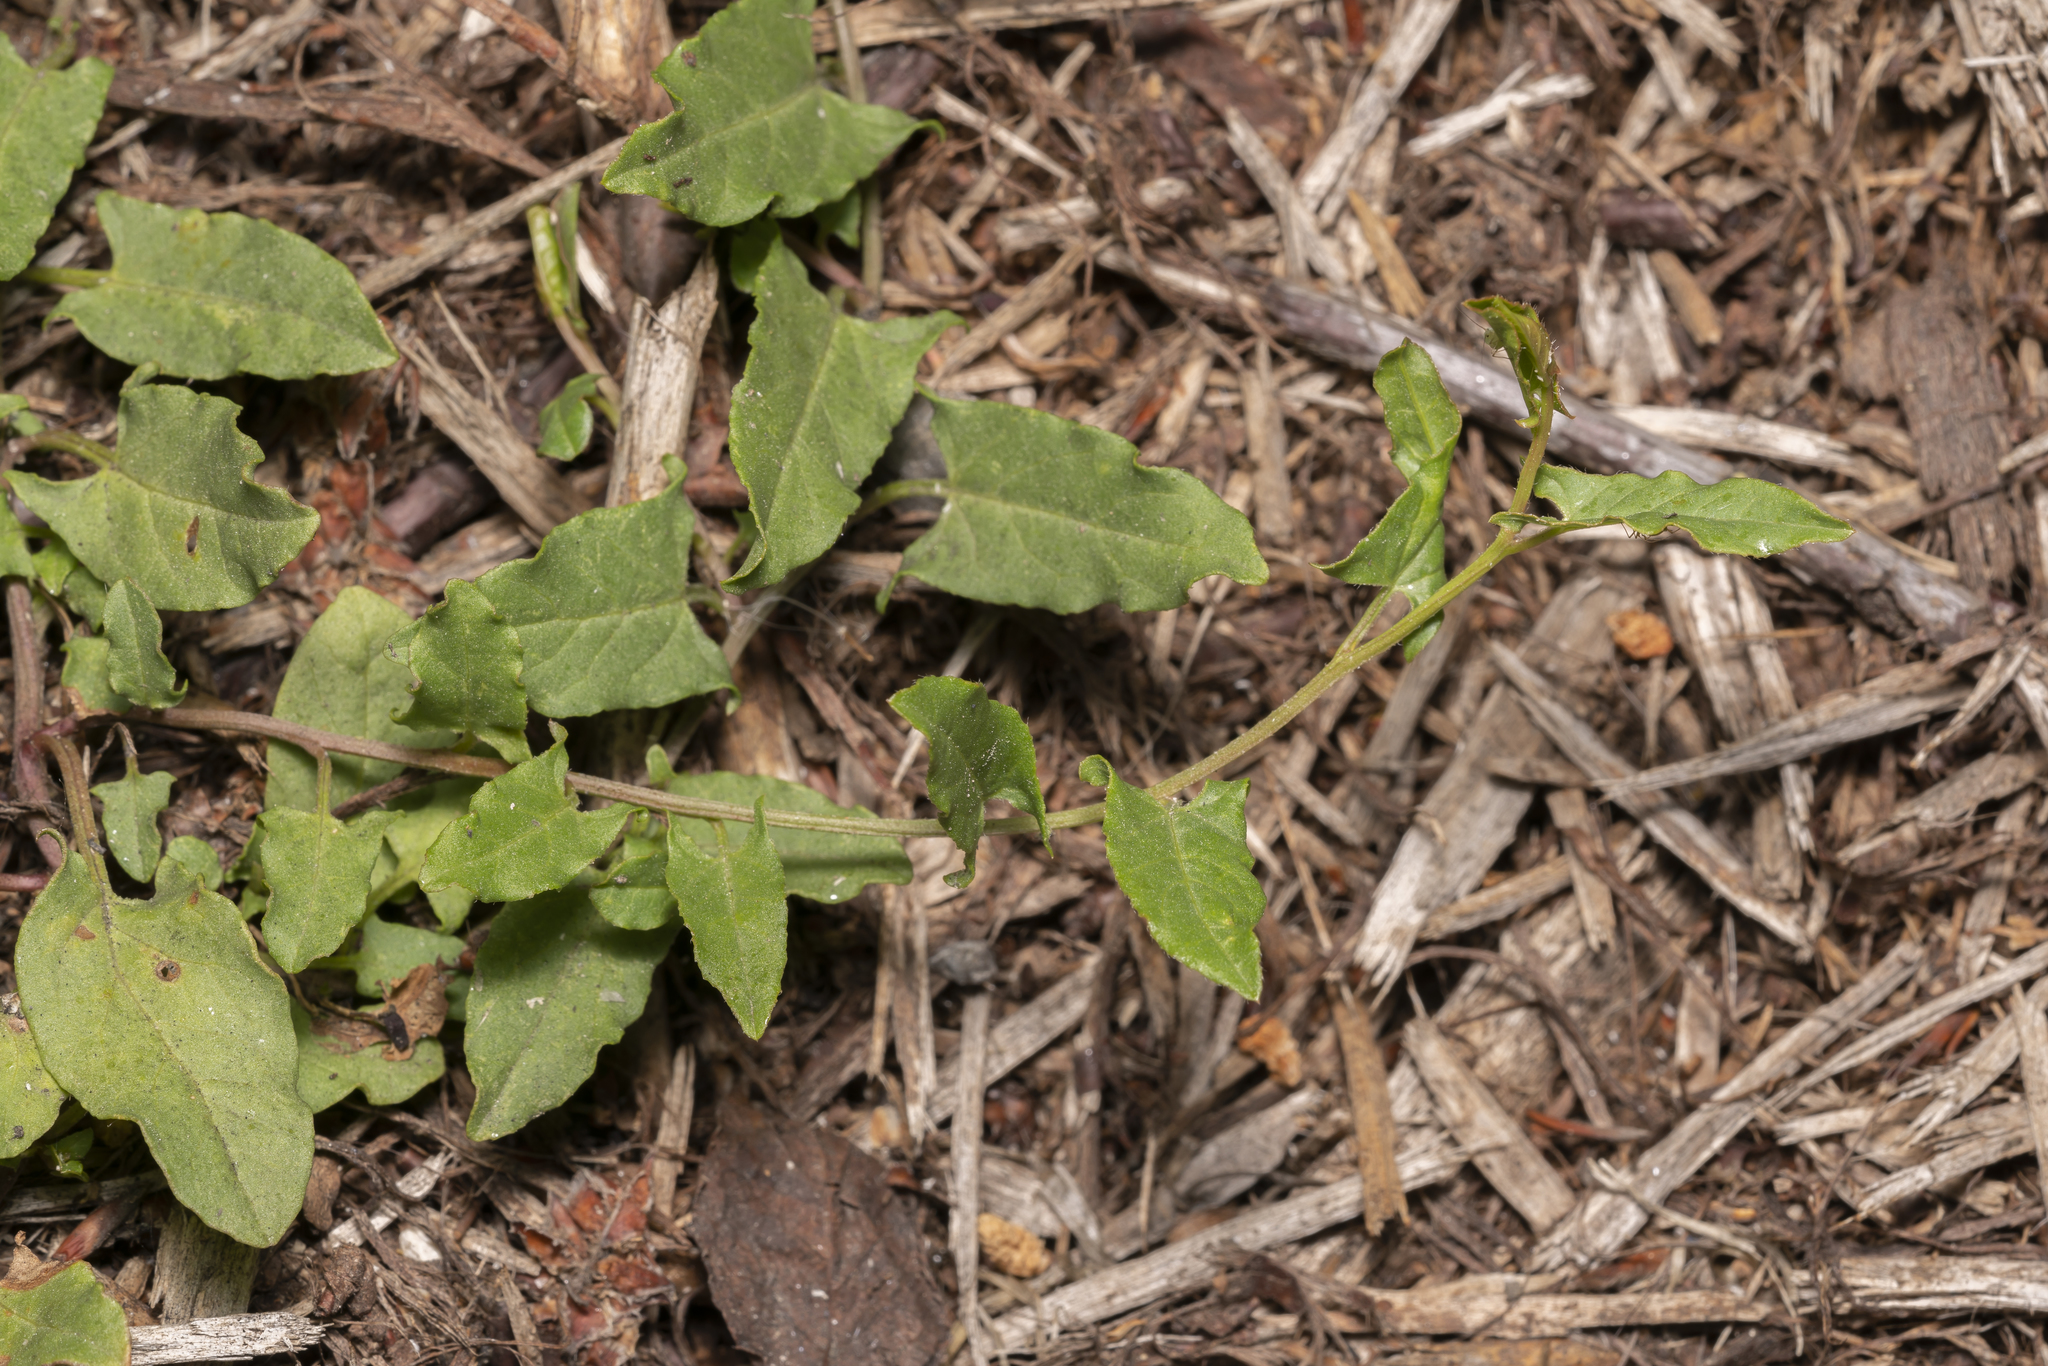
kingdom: Plantae
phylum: Tracheophyta
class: Magnoliopsida
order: Solanales
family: Convolvulaceae
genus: Convolvulus
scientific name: Convolvulus arvensis
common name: Field bindweed
